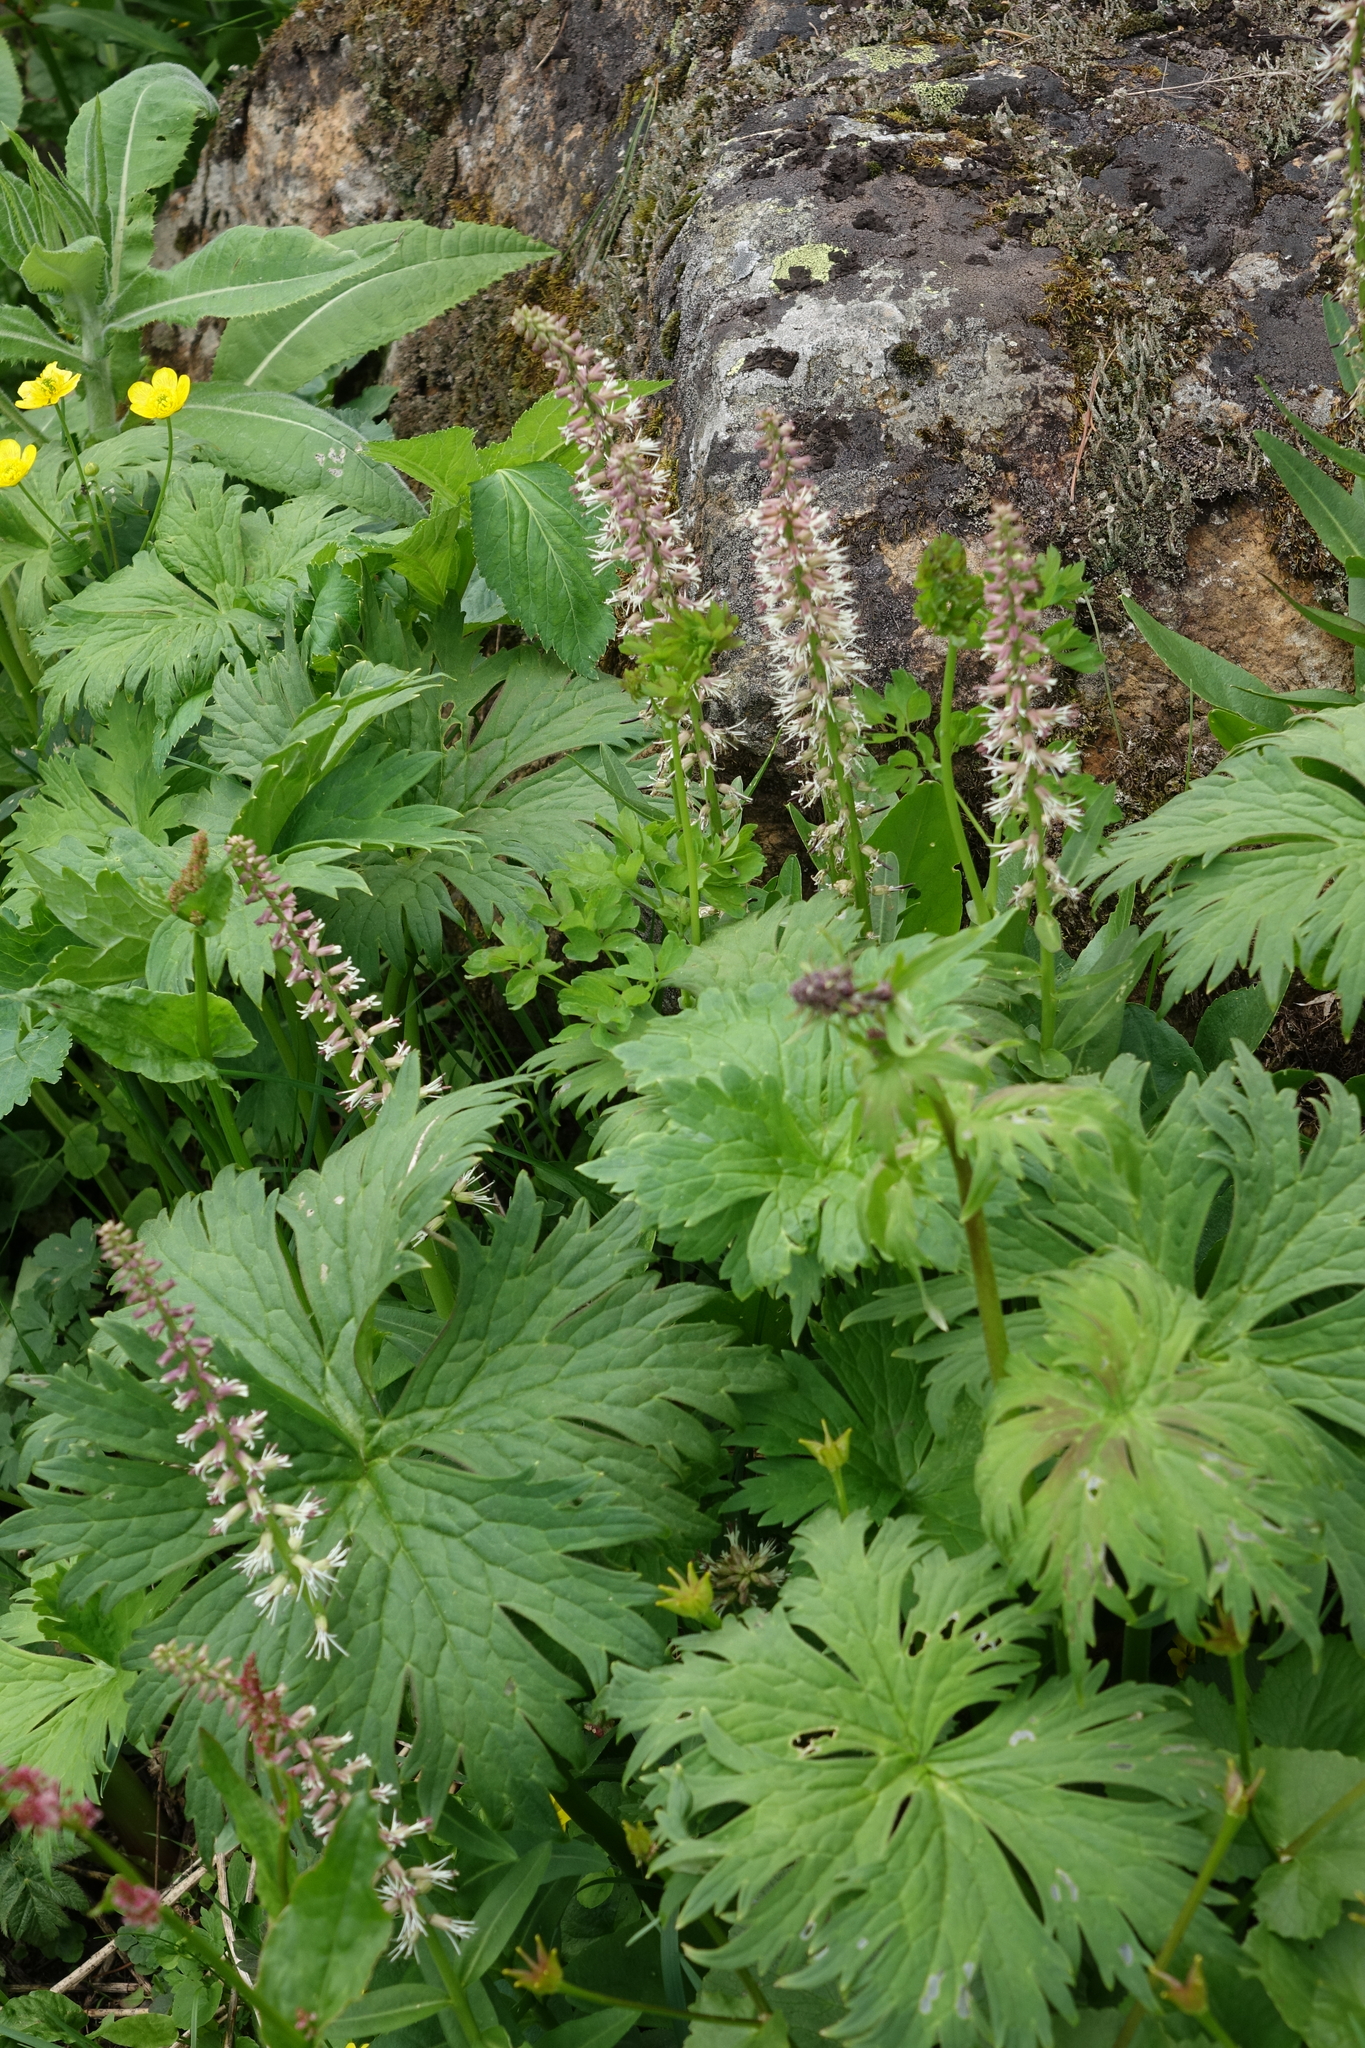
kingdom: Plantae
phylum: Tracheophyta
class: Magnoliopsida
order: Brassicales
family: Brassicaceae
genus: Macropodium
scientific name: Macropodium nivale
